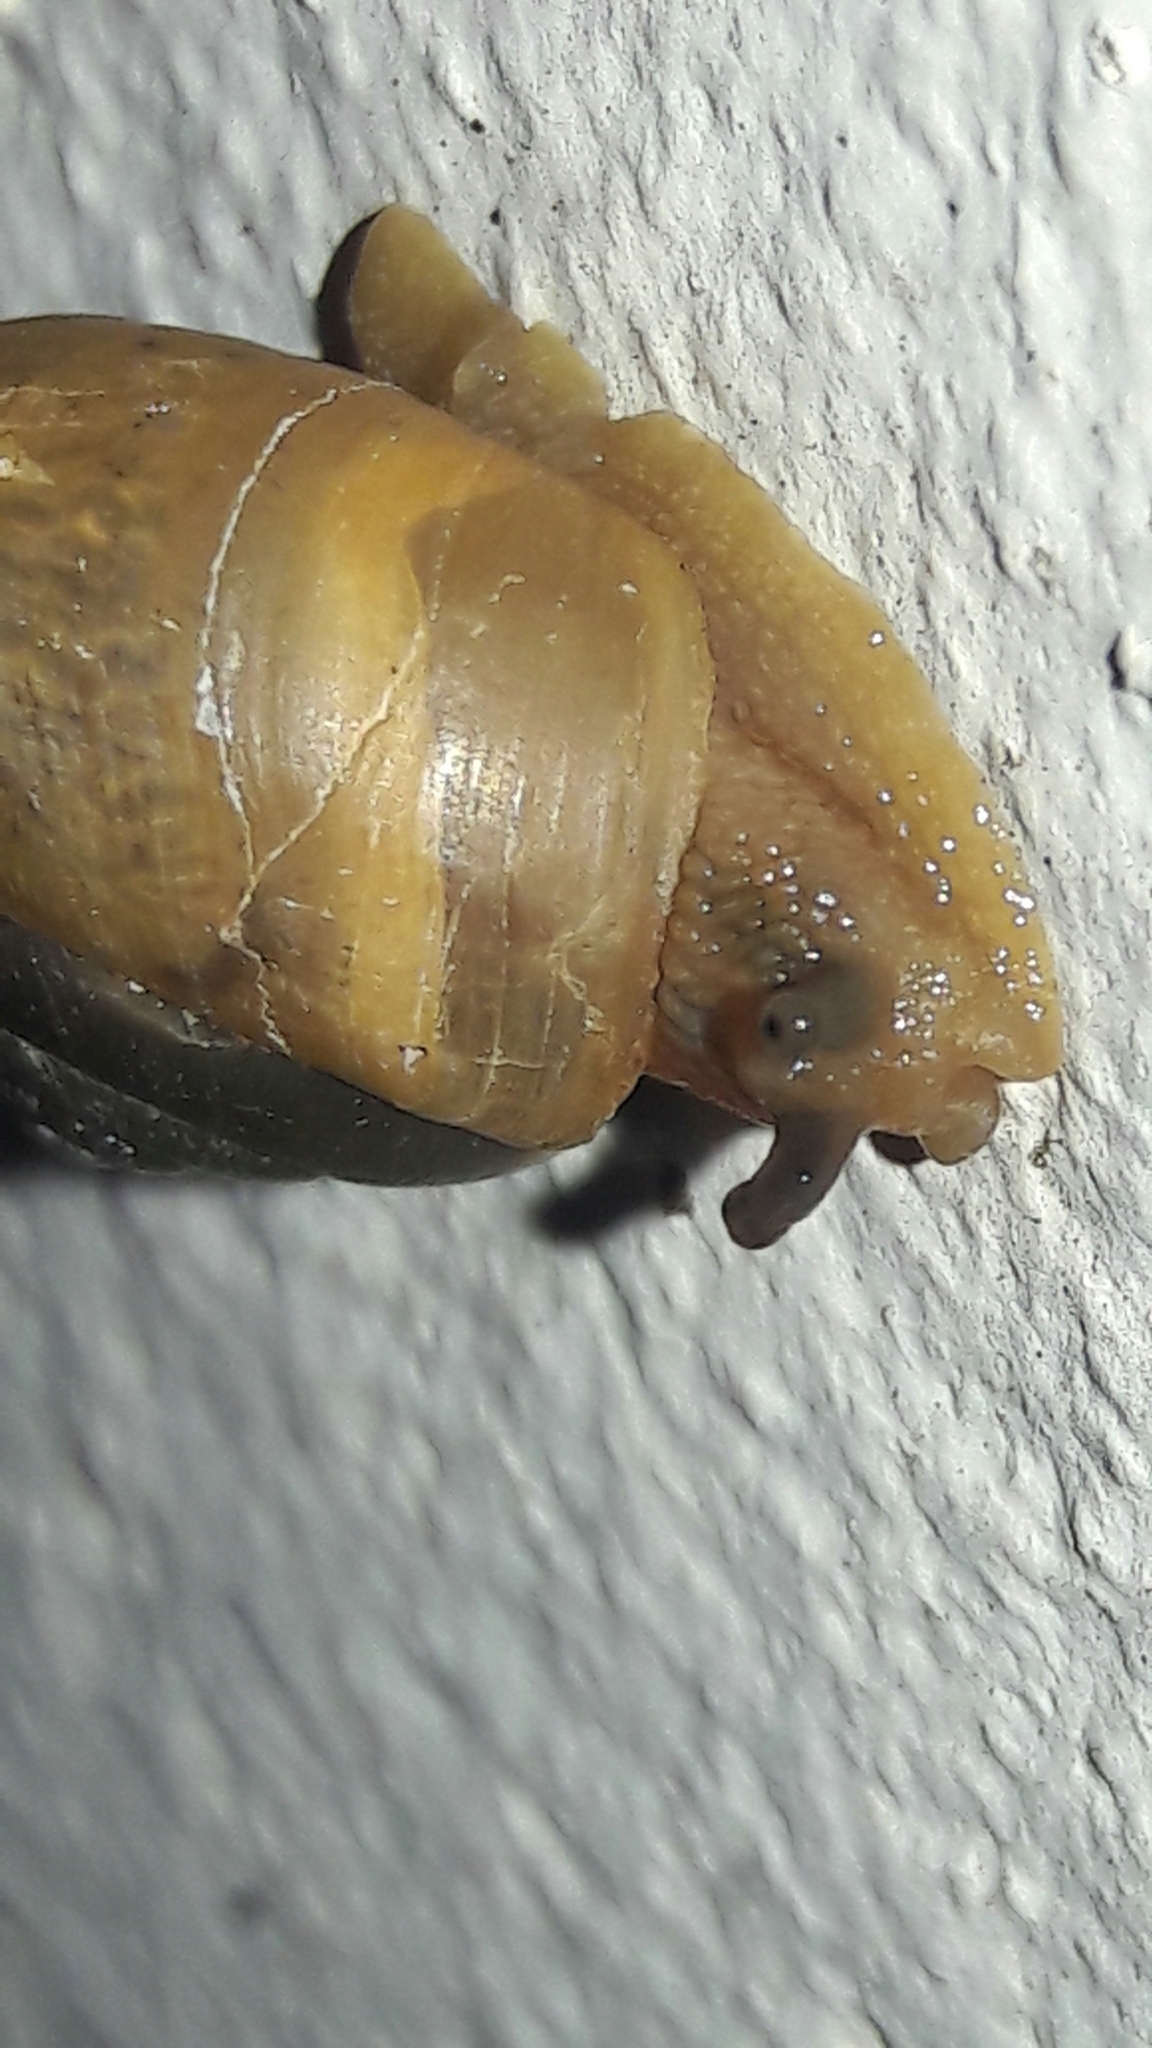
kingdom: Animalia
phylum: Mollusca
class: Gastropoda
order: Stylommatophora
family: Camaenidae
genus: Bradybaena
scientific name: Bradybaena similaris
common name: Asian trampsnail
